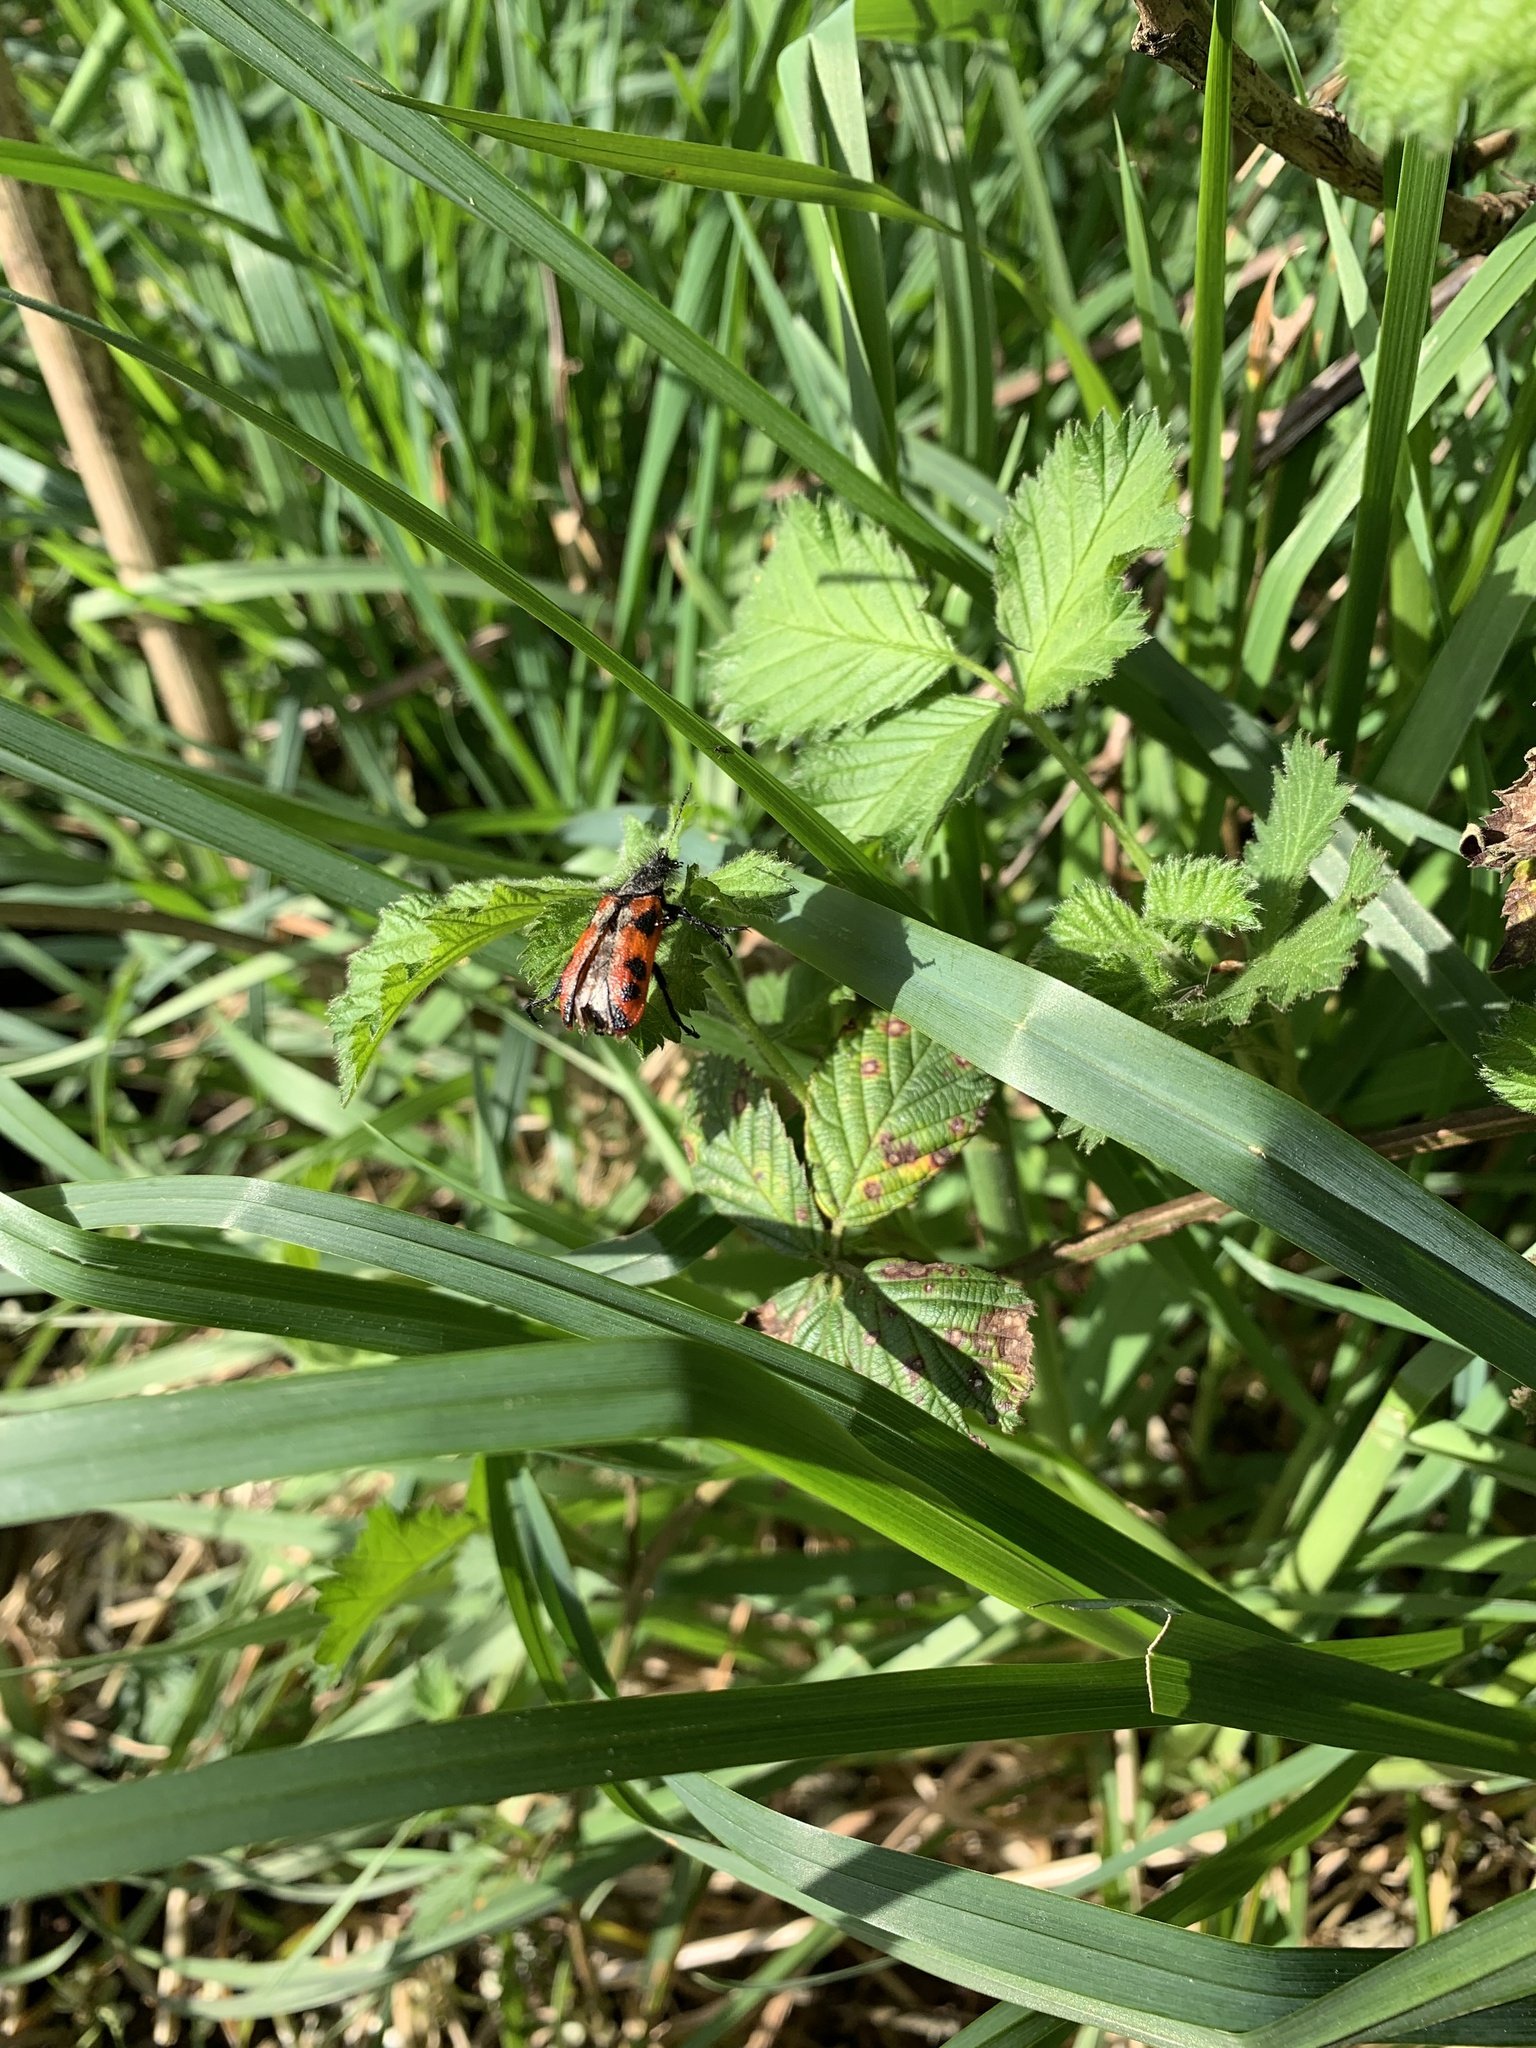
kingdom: Animalia
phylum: Arthropoda
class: Insecta
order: Coleoptera
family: Melyridae
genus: Astylus
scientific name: Astylus
